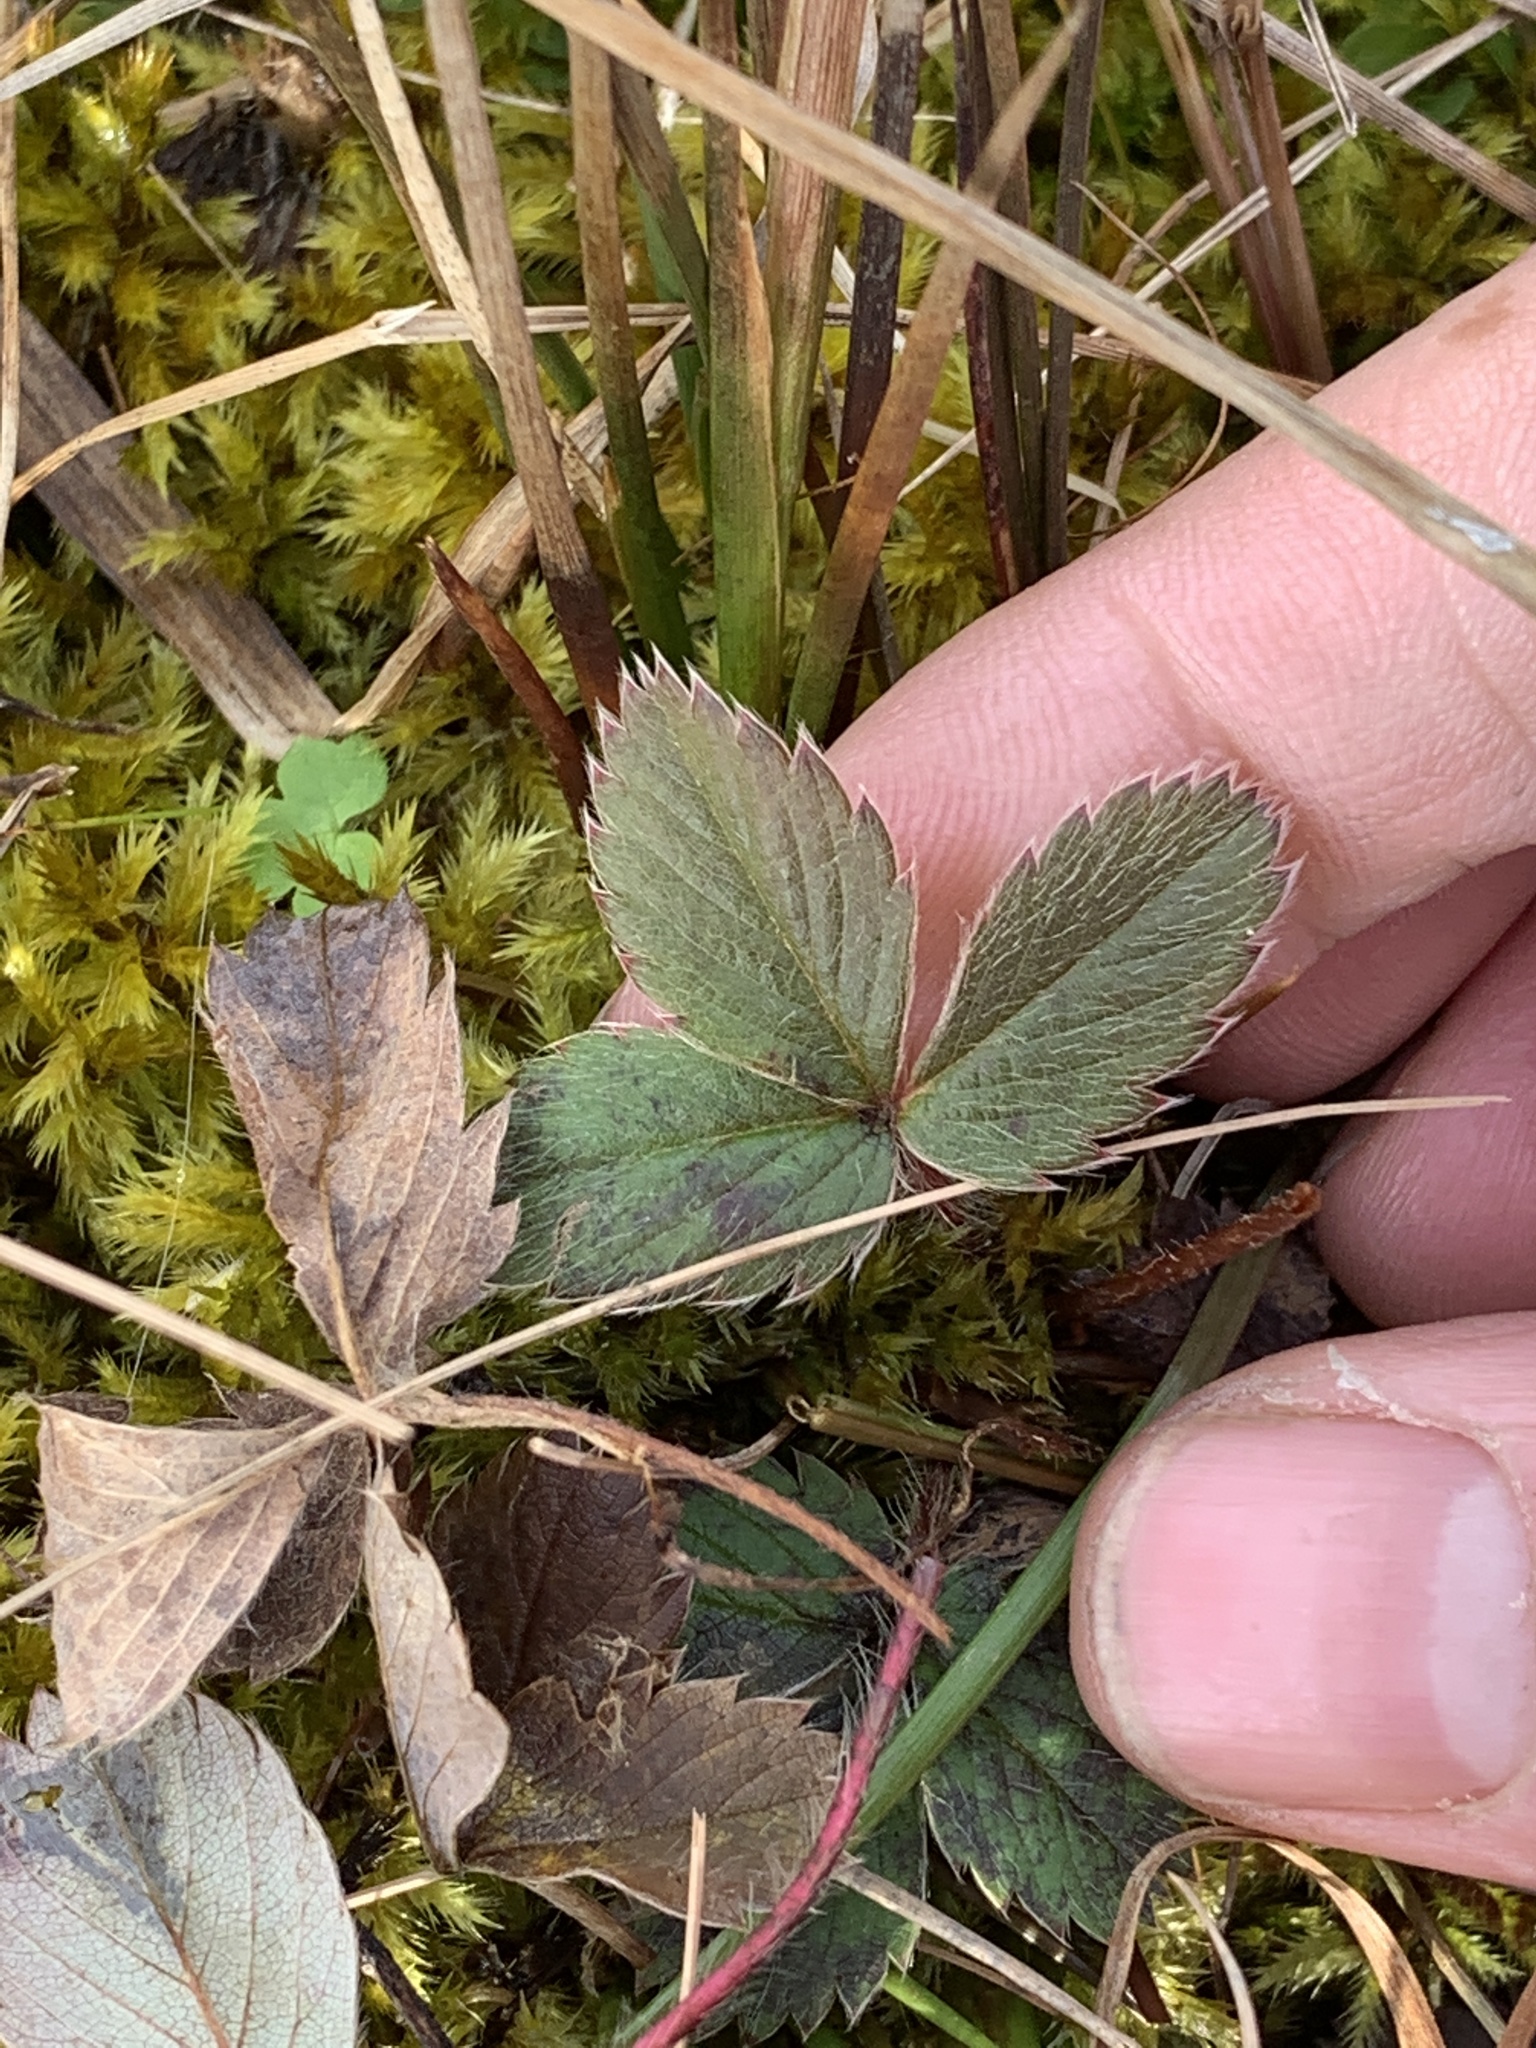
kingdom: Plantae
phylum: Tracheophyta
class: Magnoliopsida
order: Rosales
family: Rosaceae
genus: Fragaria
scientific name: Fragaria virginiana
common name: Thickleaved wild strawberry
